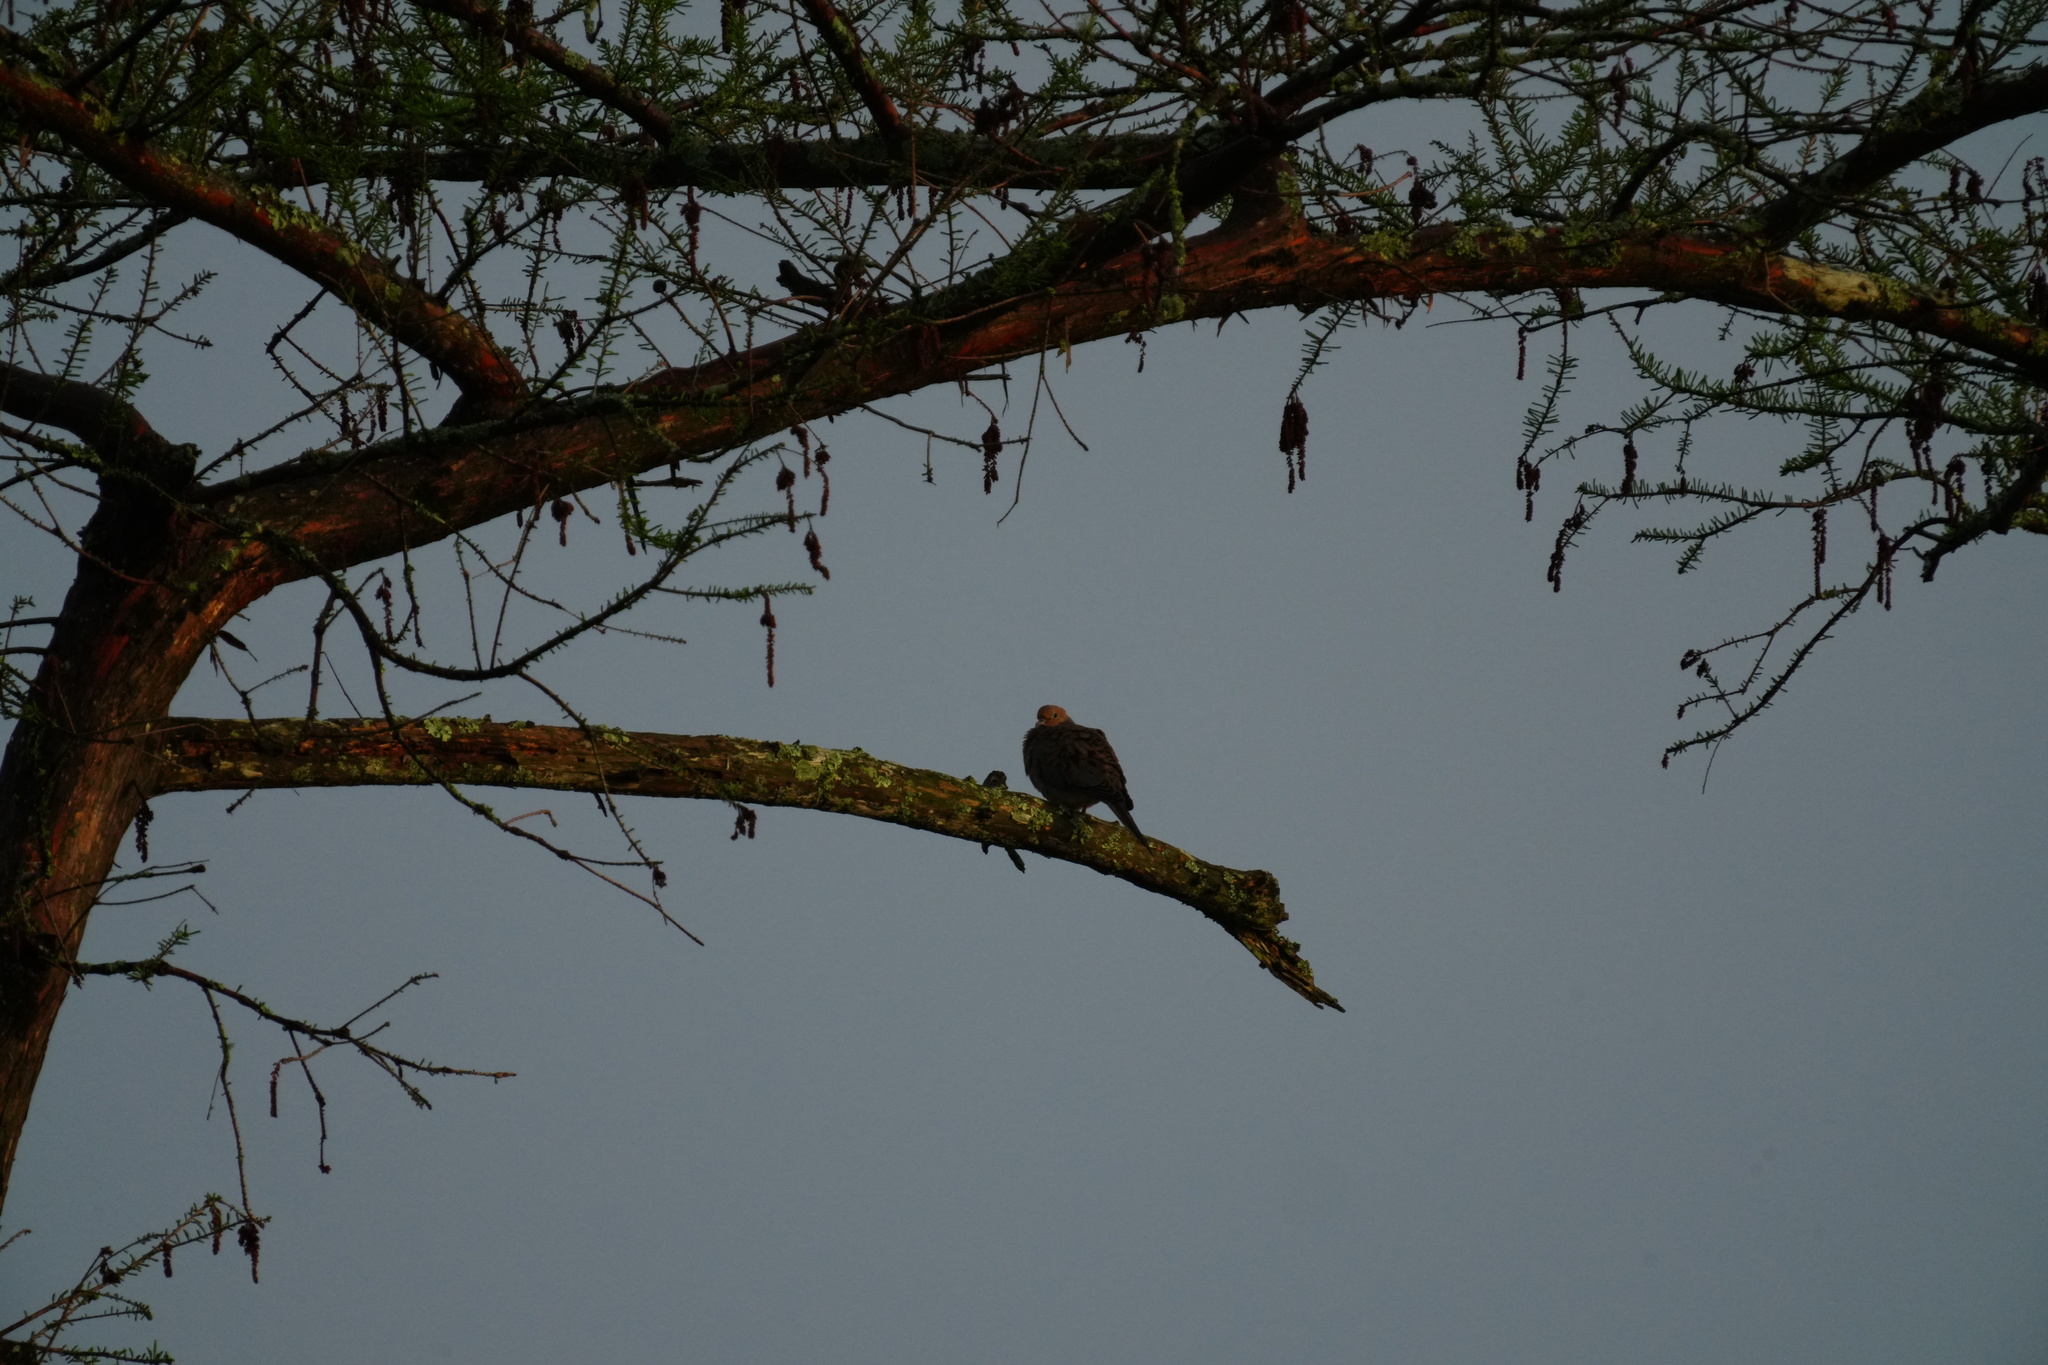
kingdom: Animalia
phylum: Chordata
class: Aves
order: Columbiformes
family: Columbidae
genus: Zenaida
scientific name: Zenaida macroura
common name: Mourning dove
